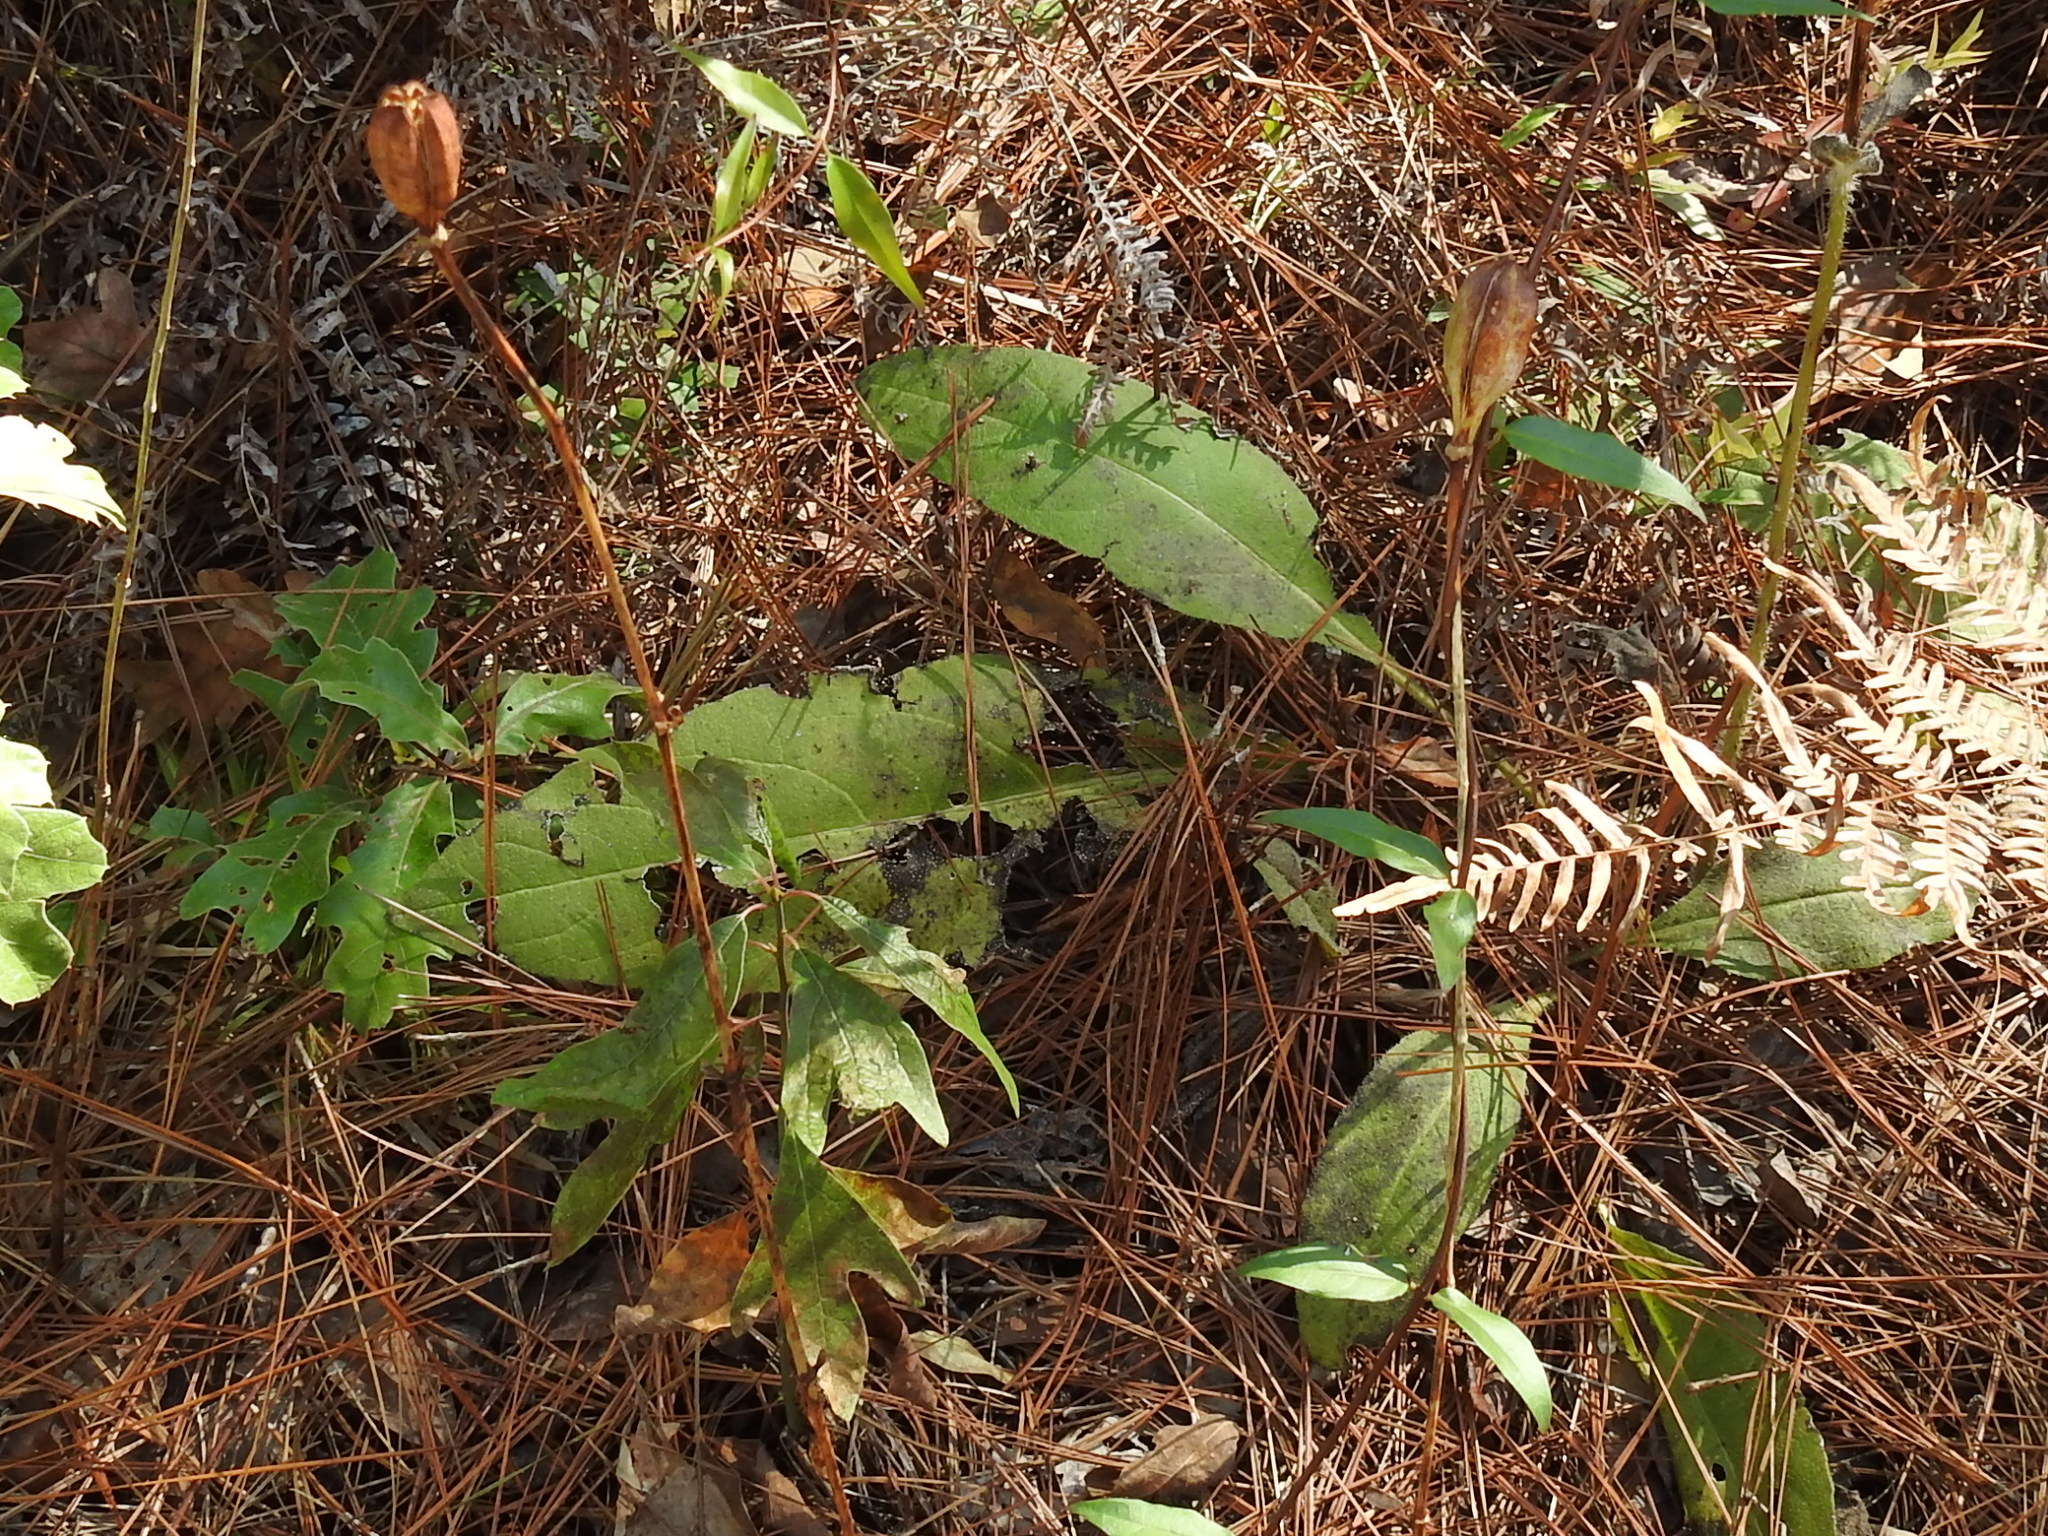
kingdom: Plantae
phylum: Tracheophyta
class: Liliopsida
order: Liliales
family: Liliaceae
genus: Lilium
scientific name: Lilium michauxii
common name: Carolina lily
